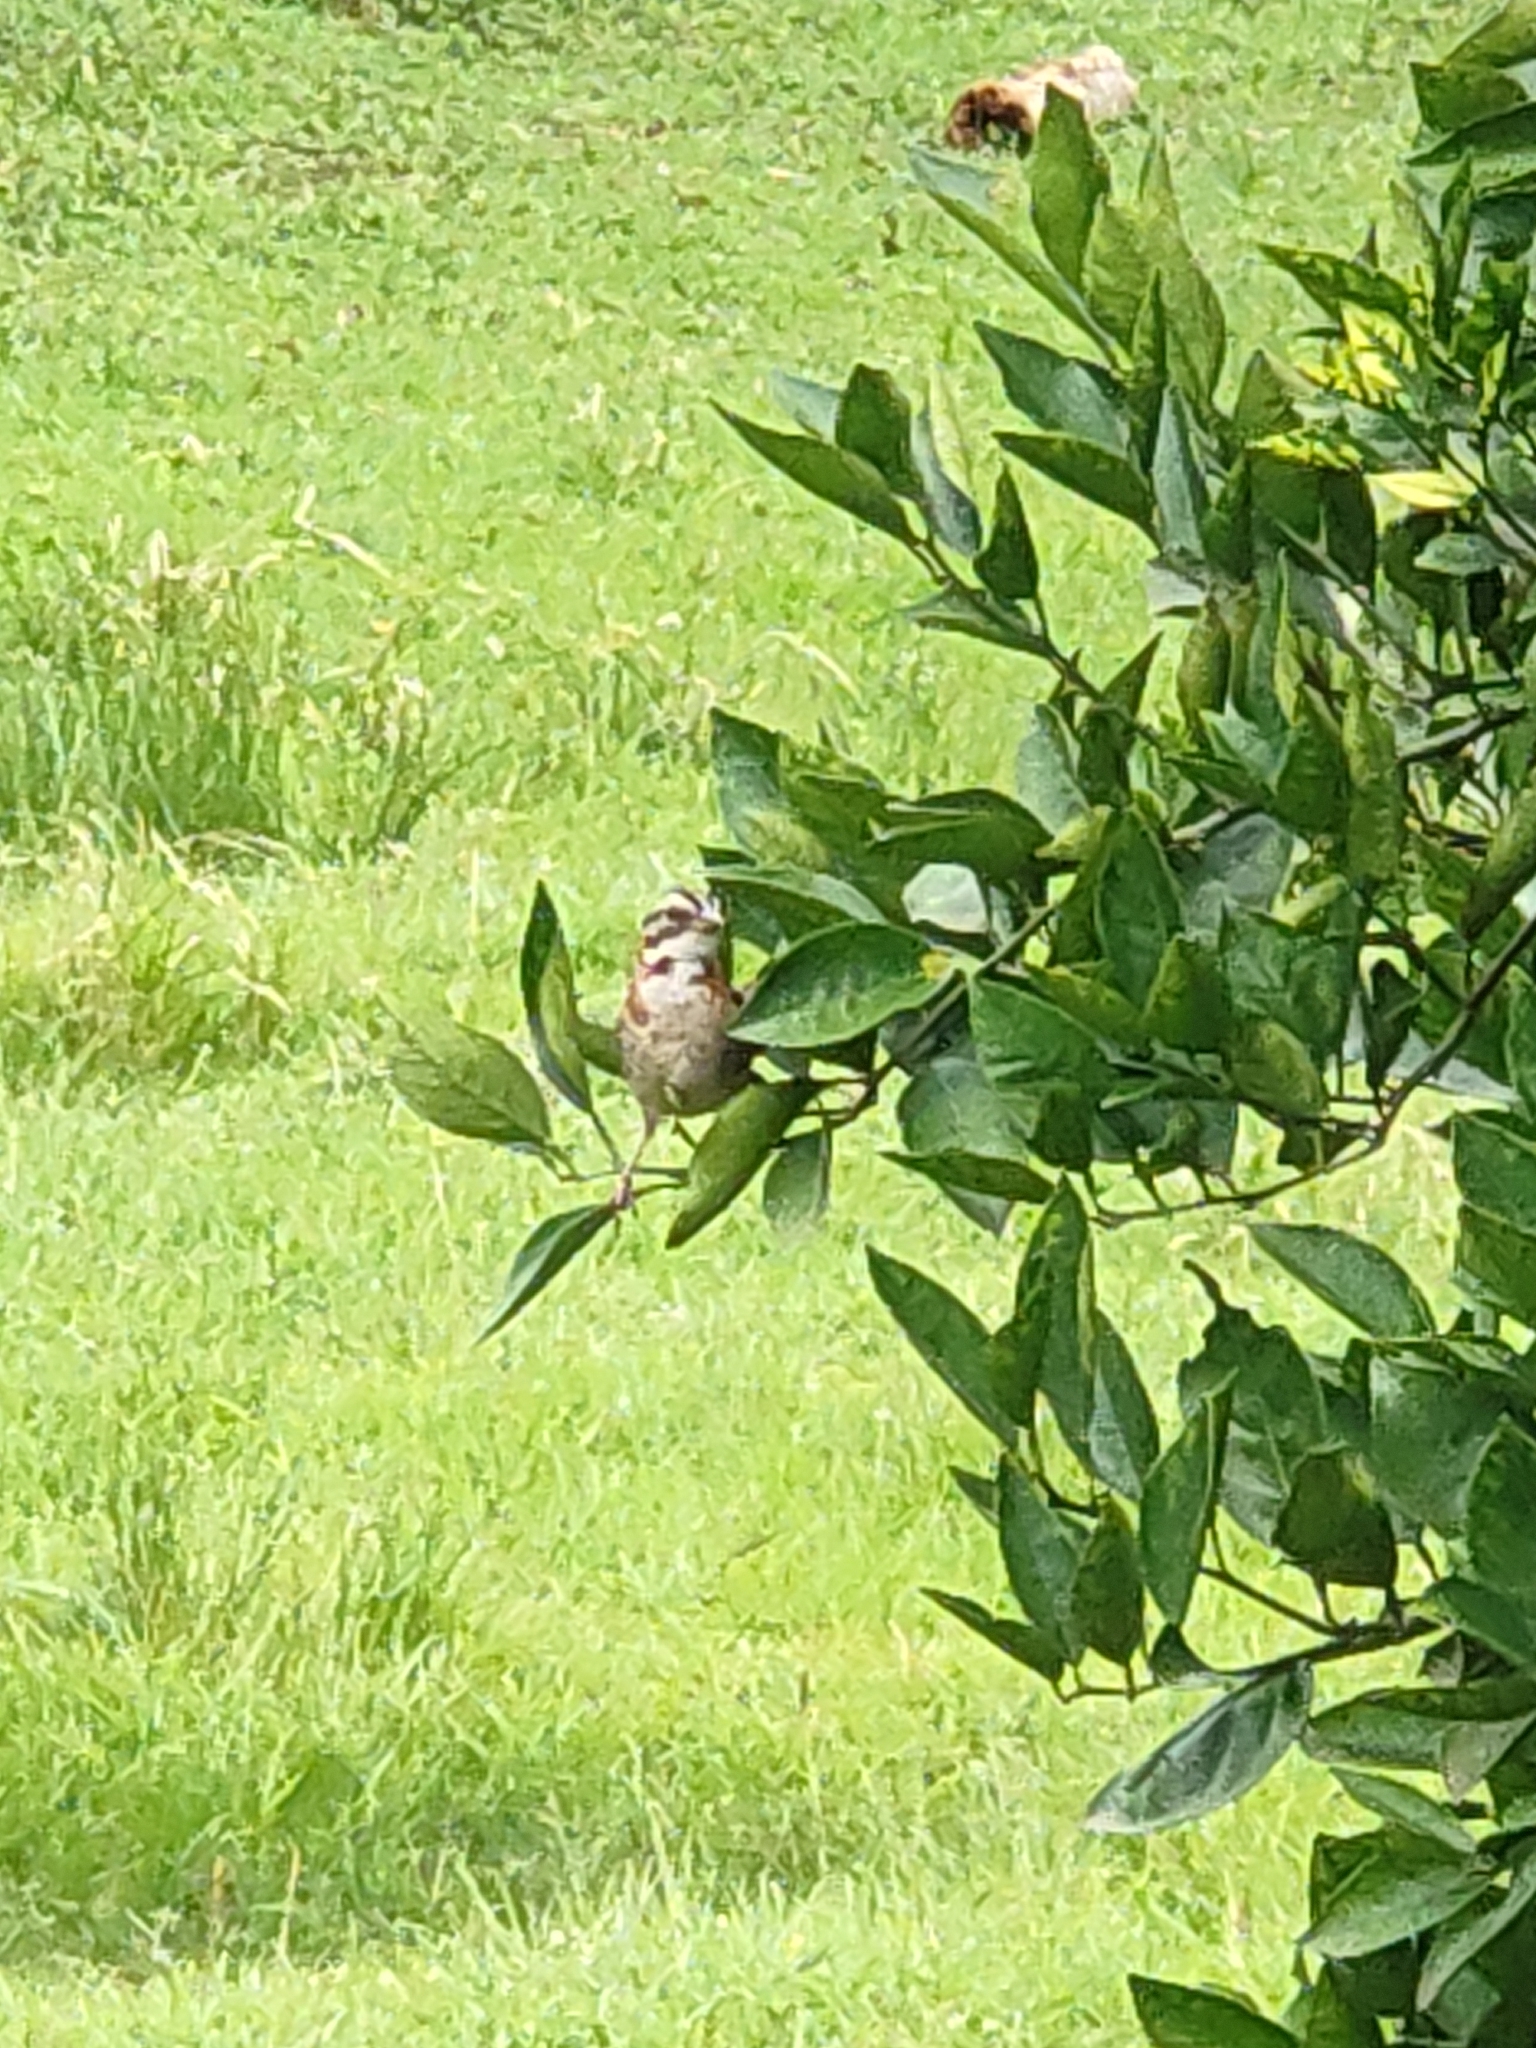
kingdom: Animalia
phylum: Chordata
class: Aves
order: Passeriformes
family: Passerellidae
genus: Zonotrichia
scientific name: Zonotrichia capensis
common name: Rufous-collared sparrow
